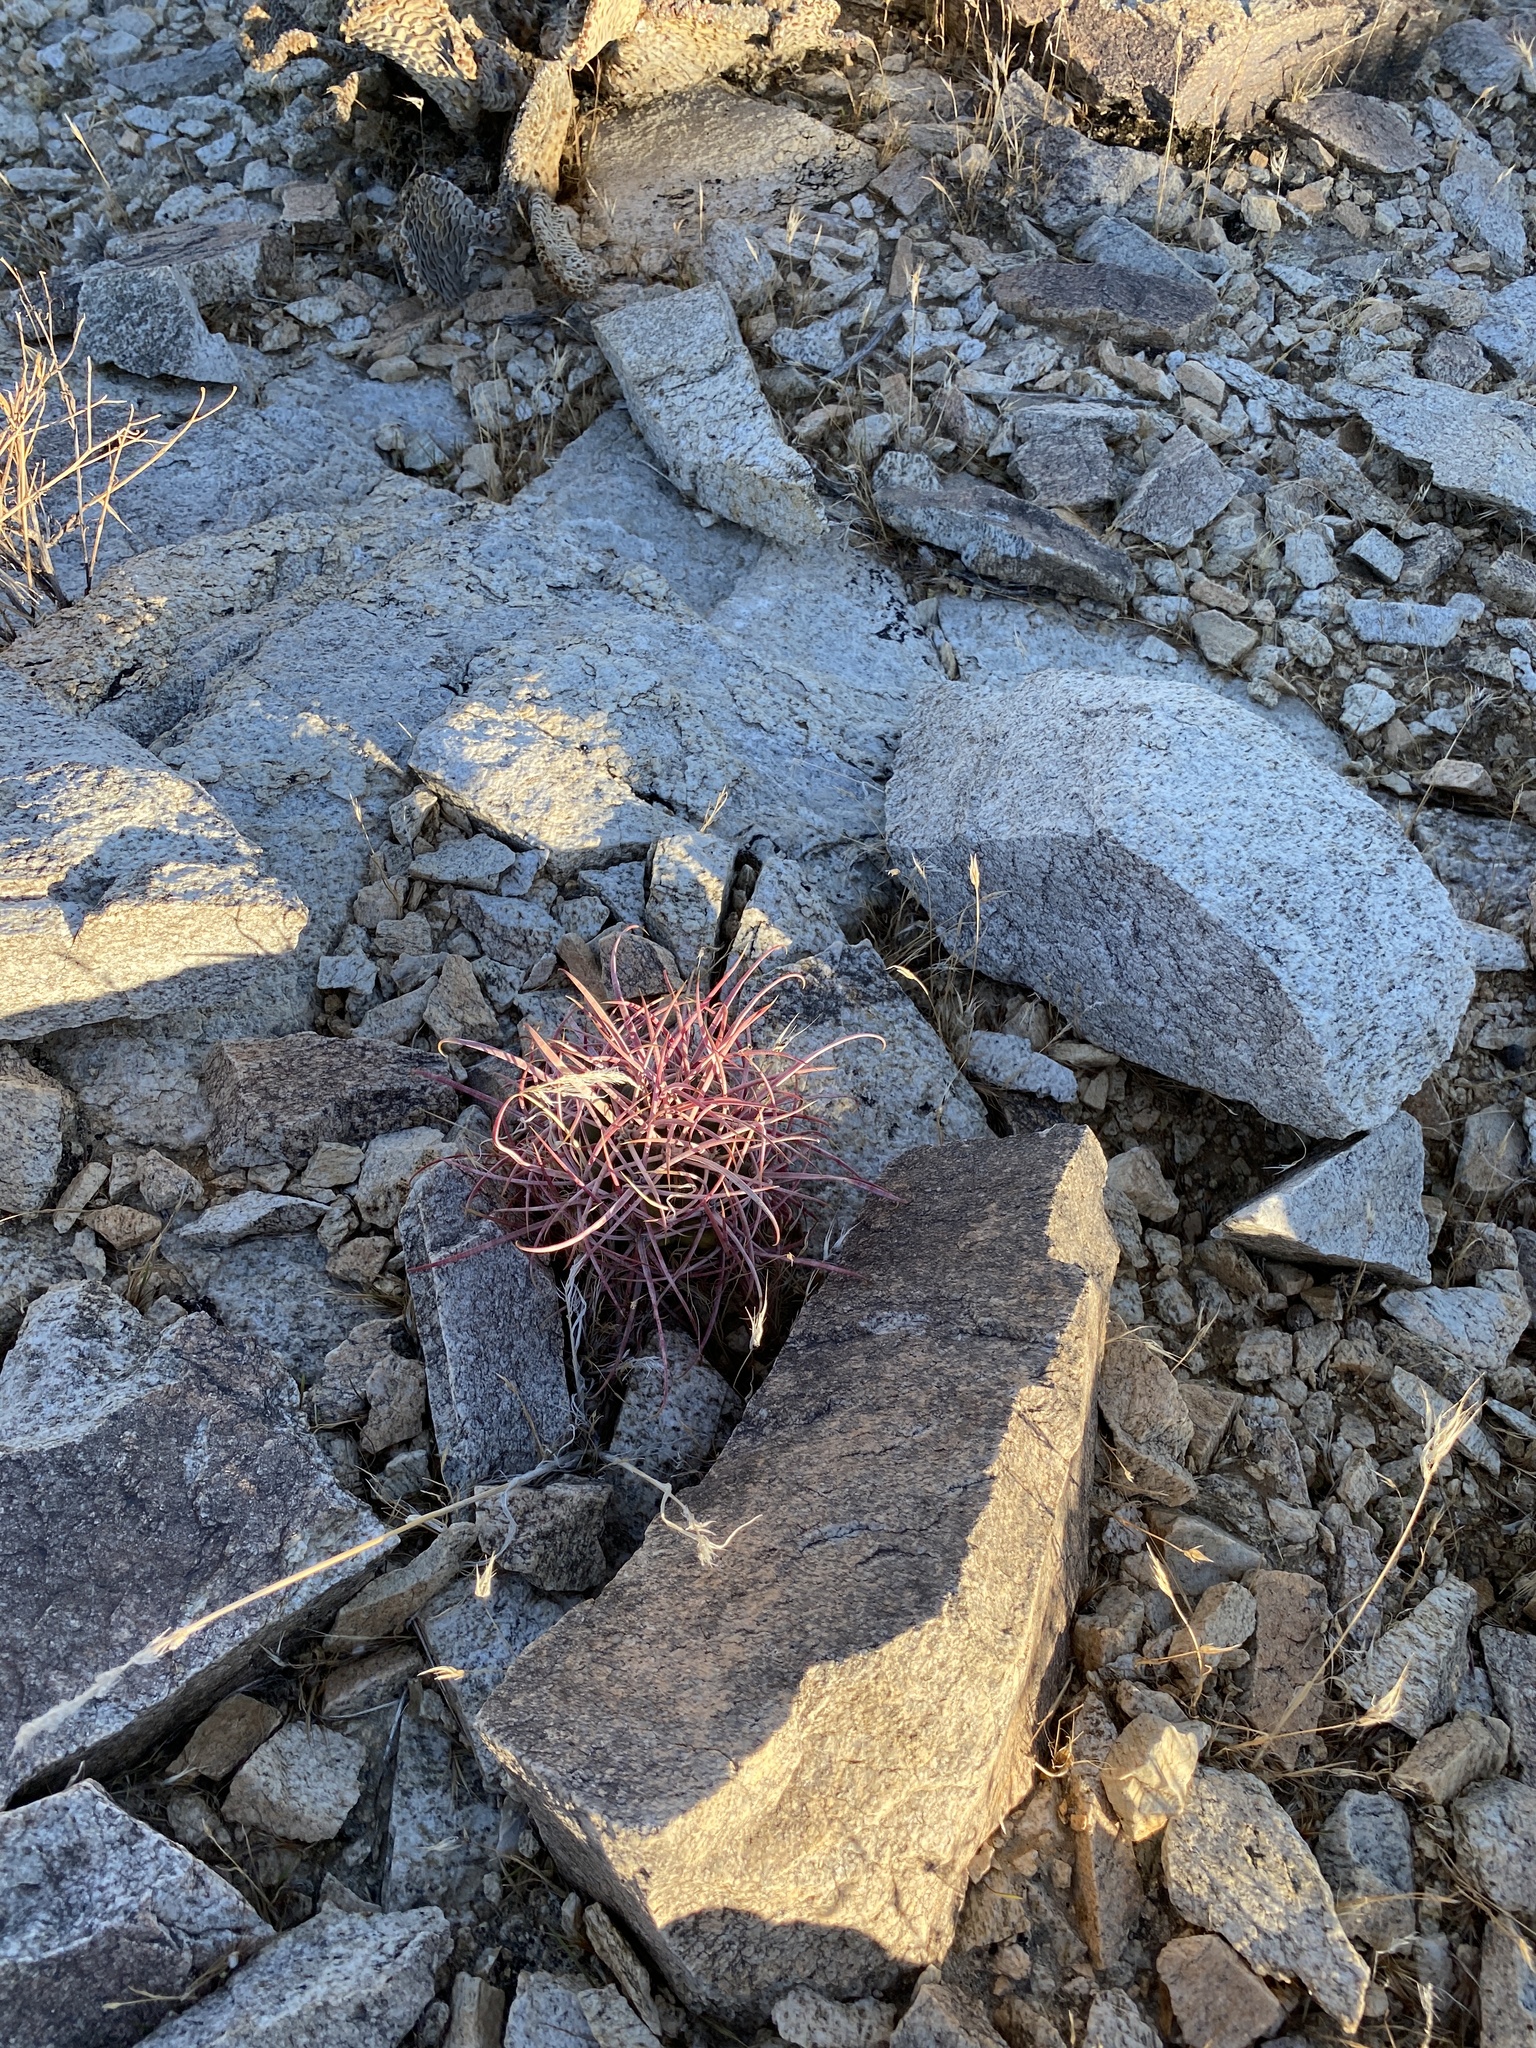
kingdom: Plantae
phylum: Tracheophyta
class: Magnoliopsida
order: Caryophyllales
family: Cactaceae
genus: Ferocactus
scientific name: Ferocactus cylindraceus
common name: California barrel cactus
